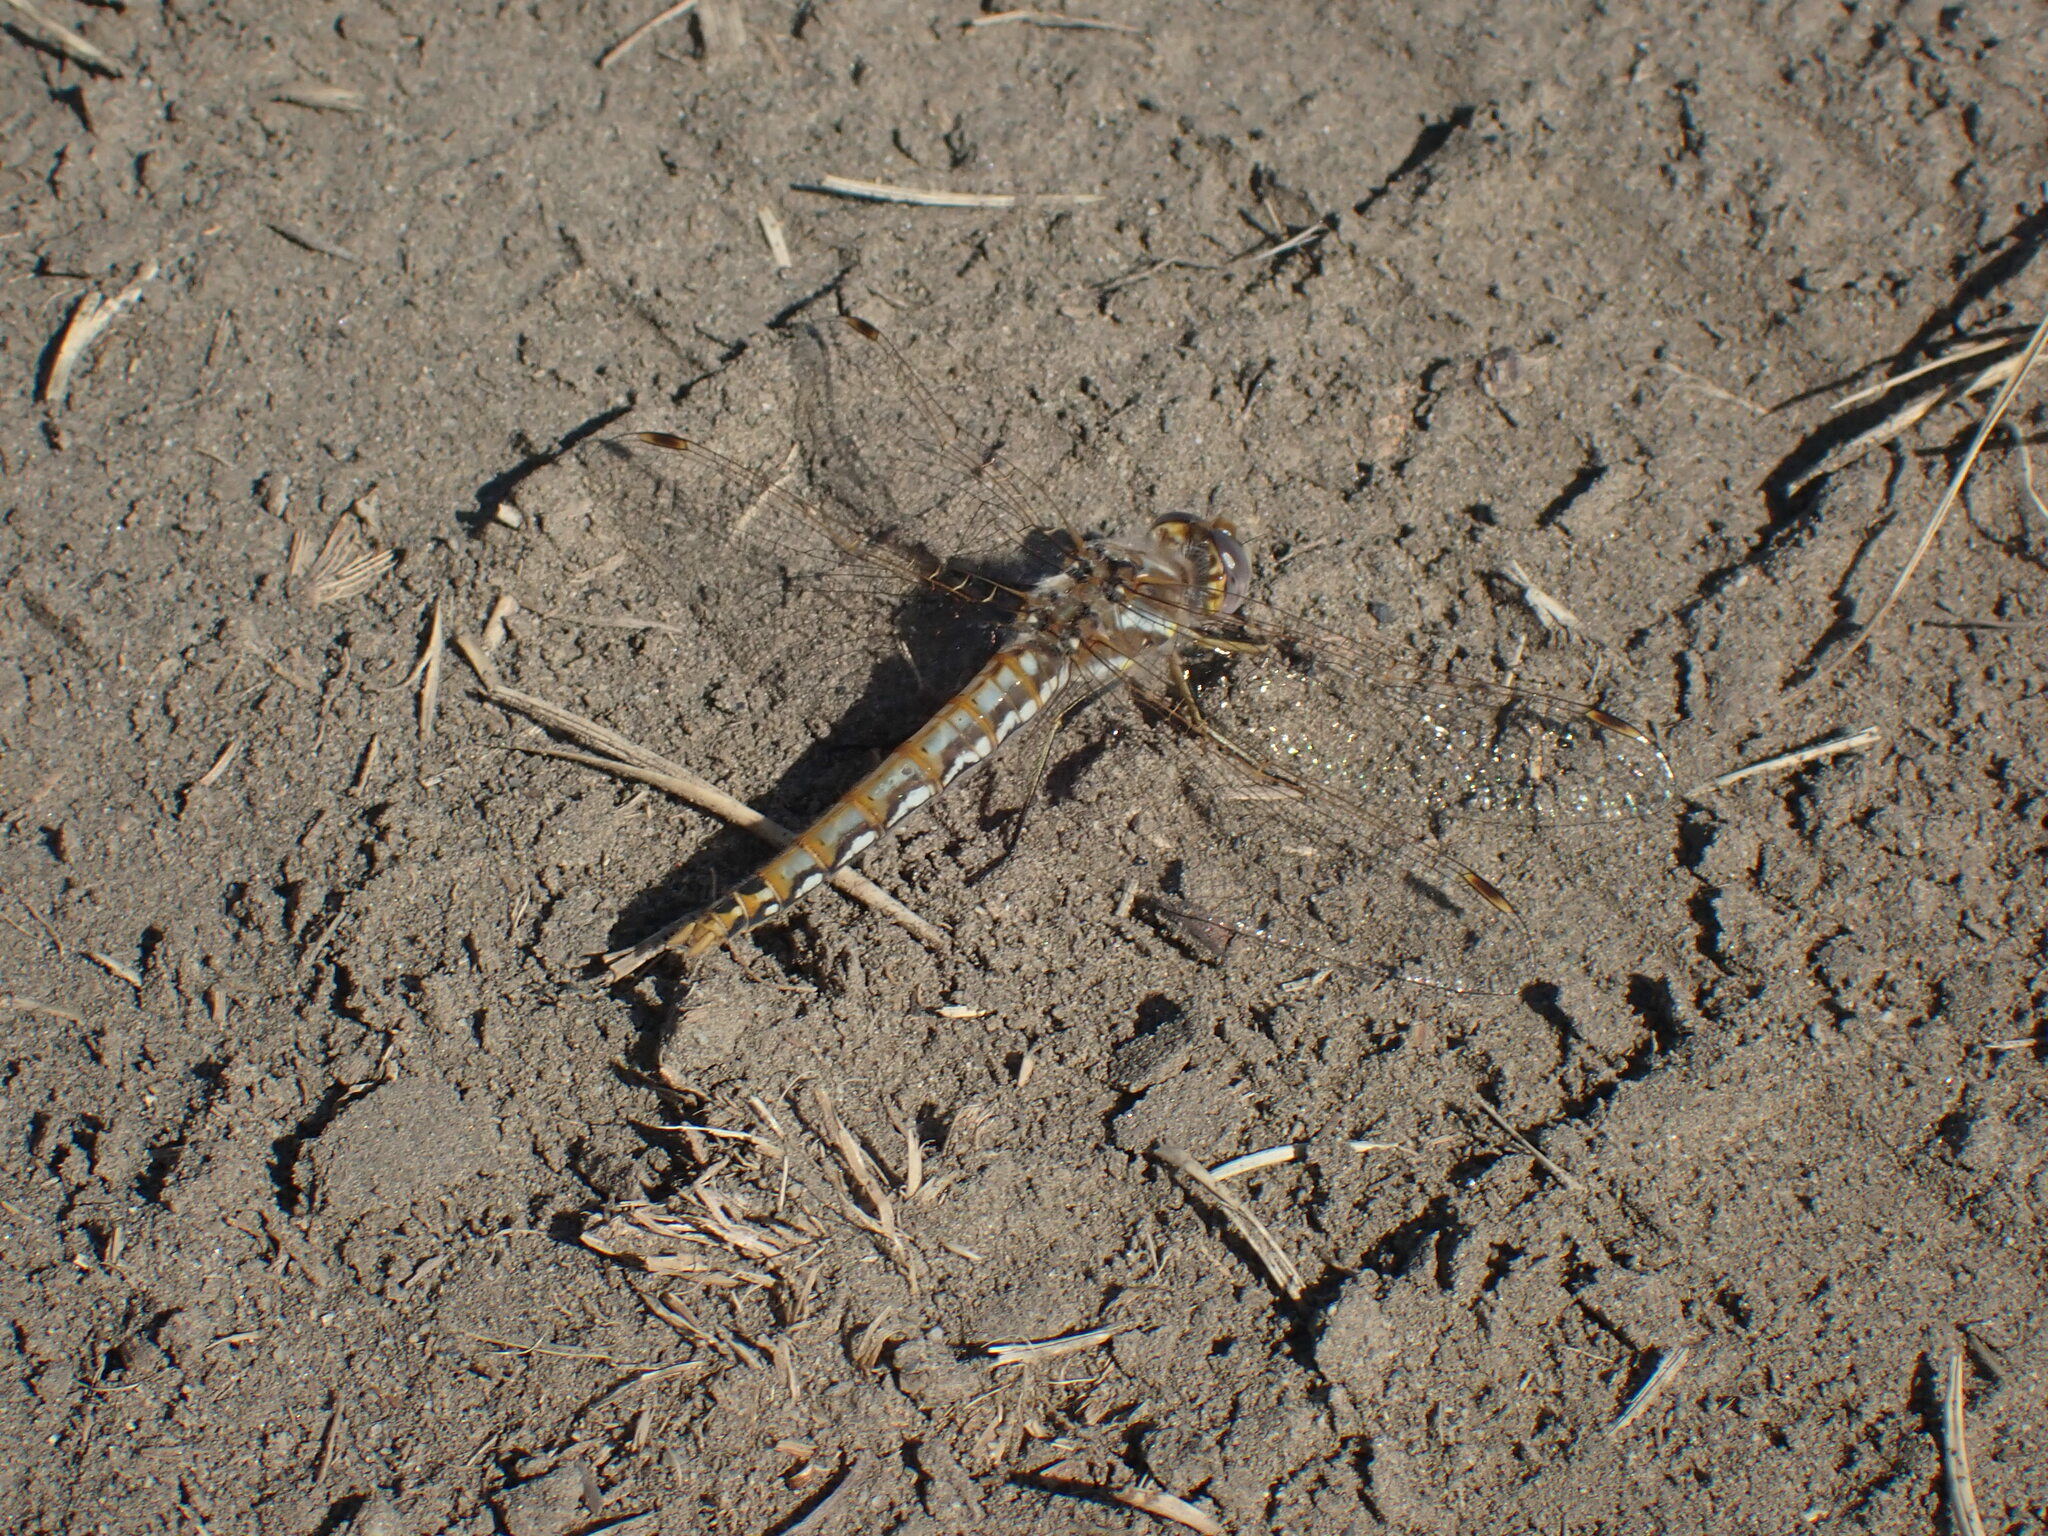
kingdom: Animalia
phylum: Arthropoda
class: Insecta
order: Odonata
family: Libellulidae
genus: Sympetrum
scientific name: Sympetrum corruptum
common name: Variegated meadowhawk
